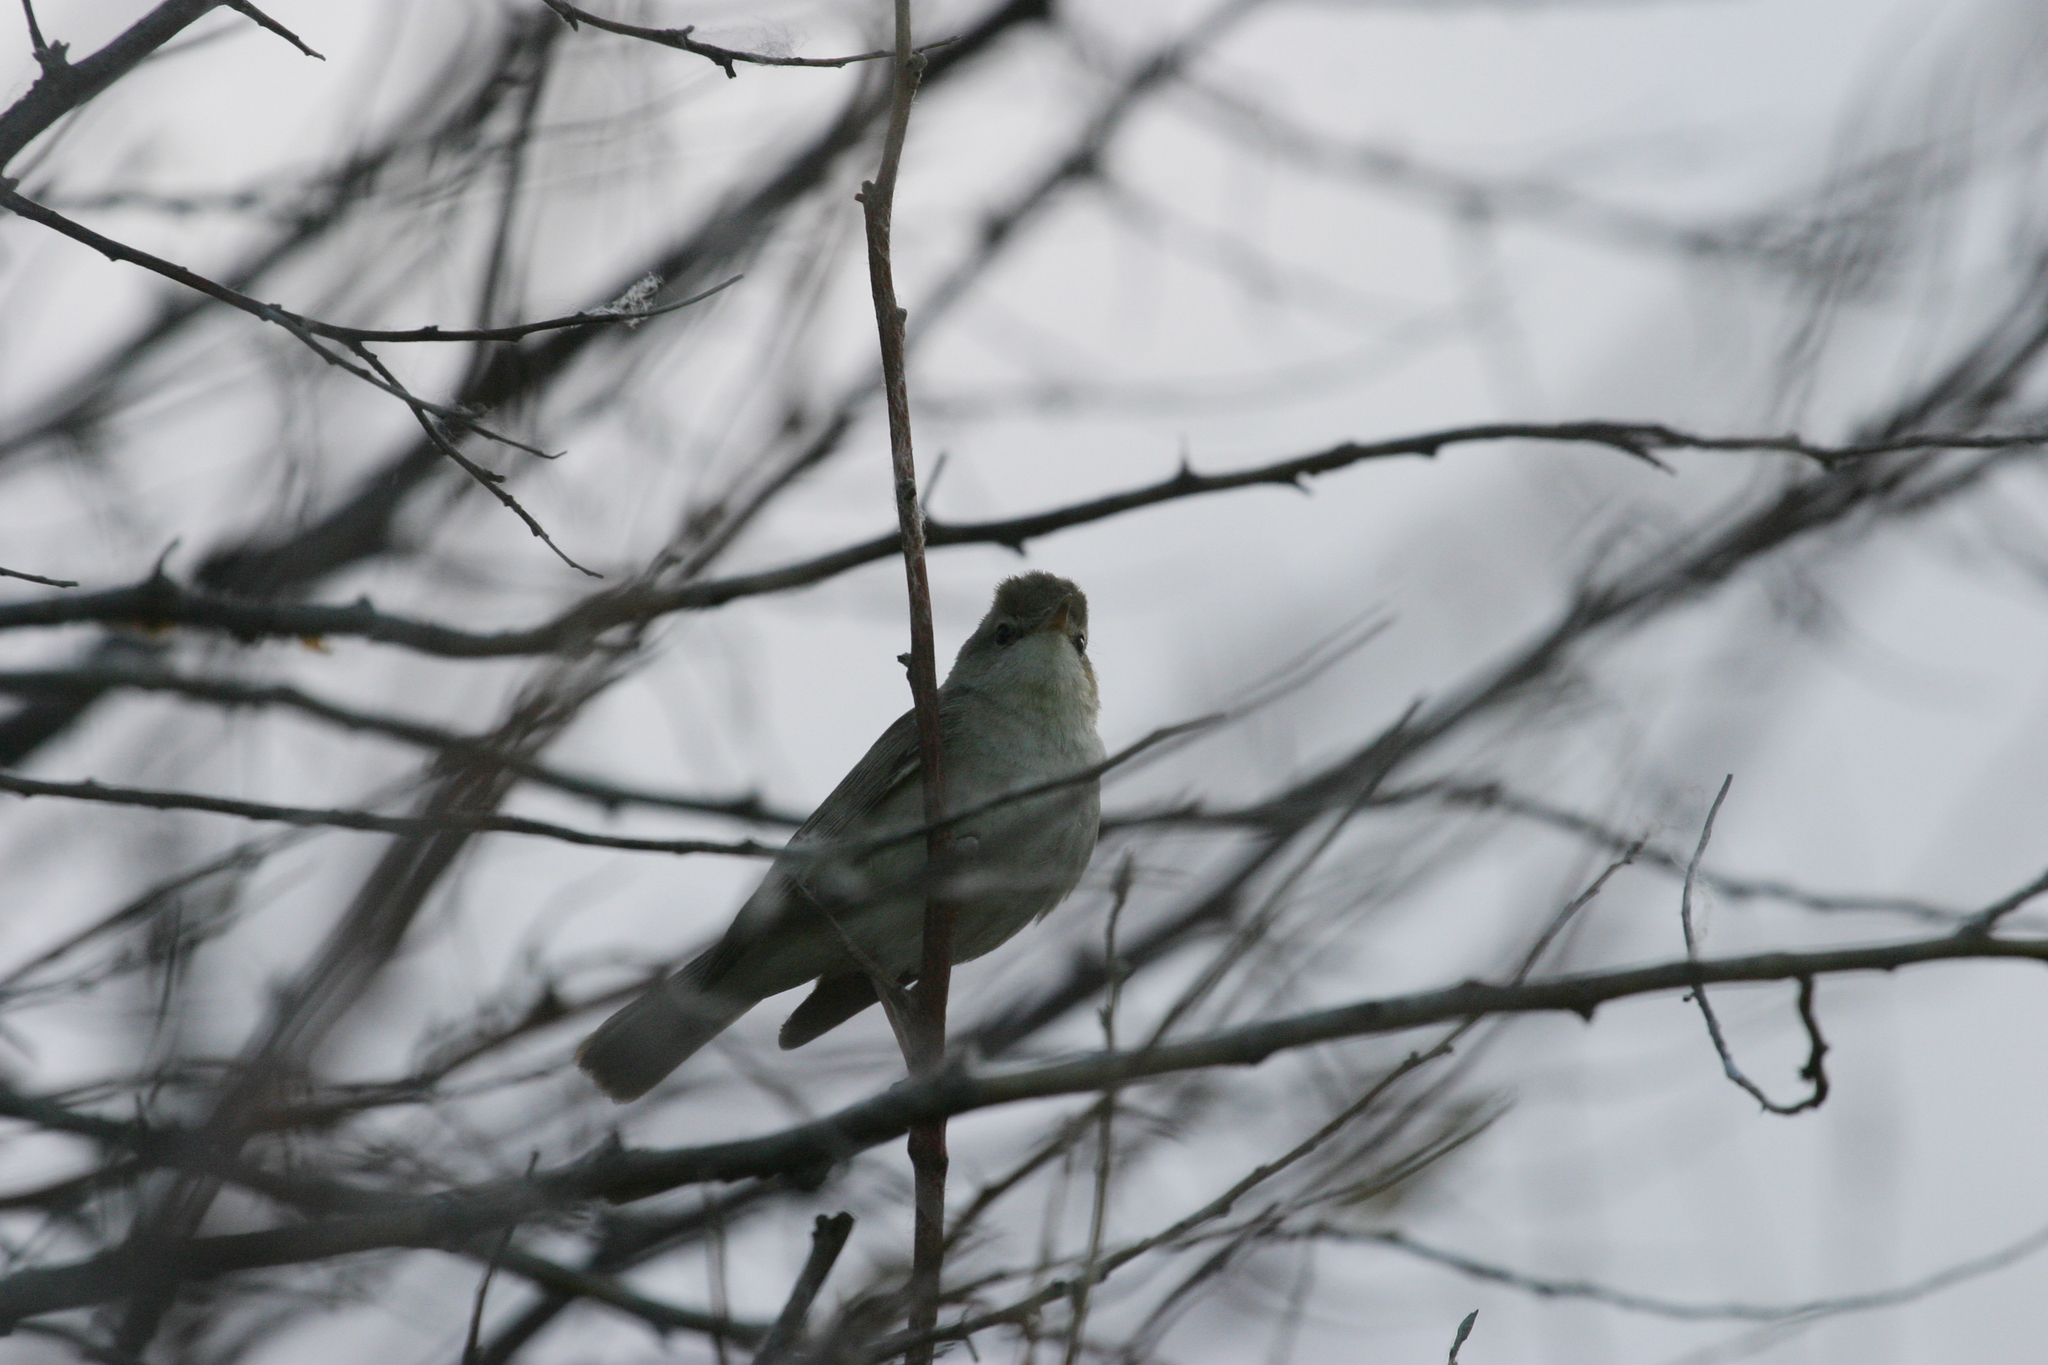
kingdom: Animalia
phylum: Chordata
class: Aves
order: Passeriformes
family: Acrocephalidae
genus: Iduna
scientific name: Iduna caligata
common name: Booted warbler
